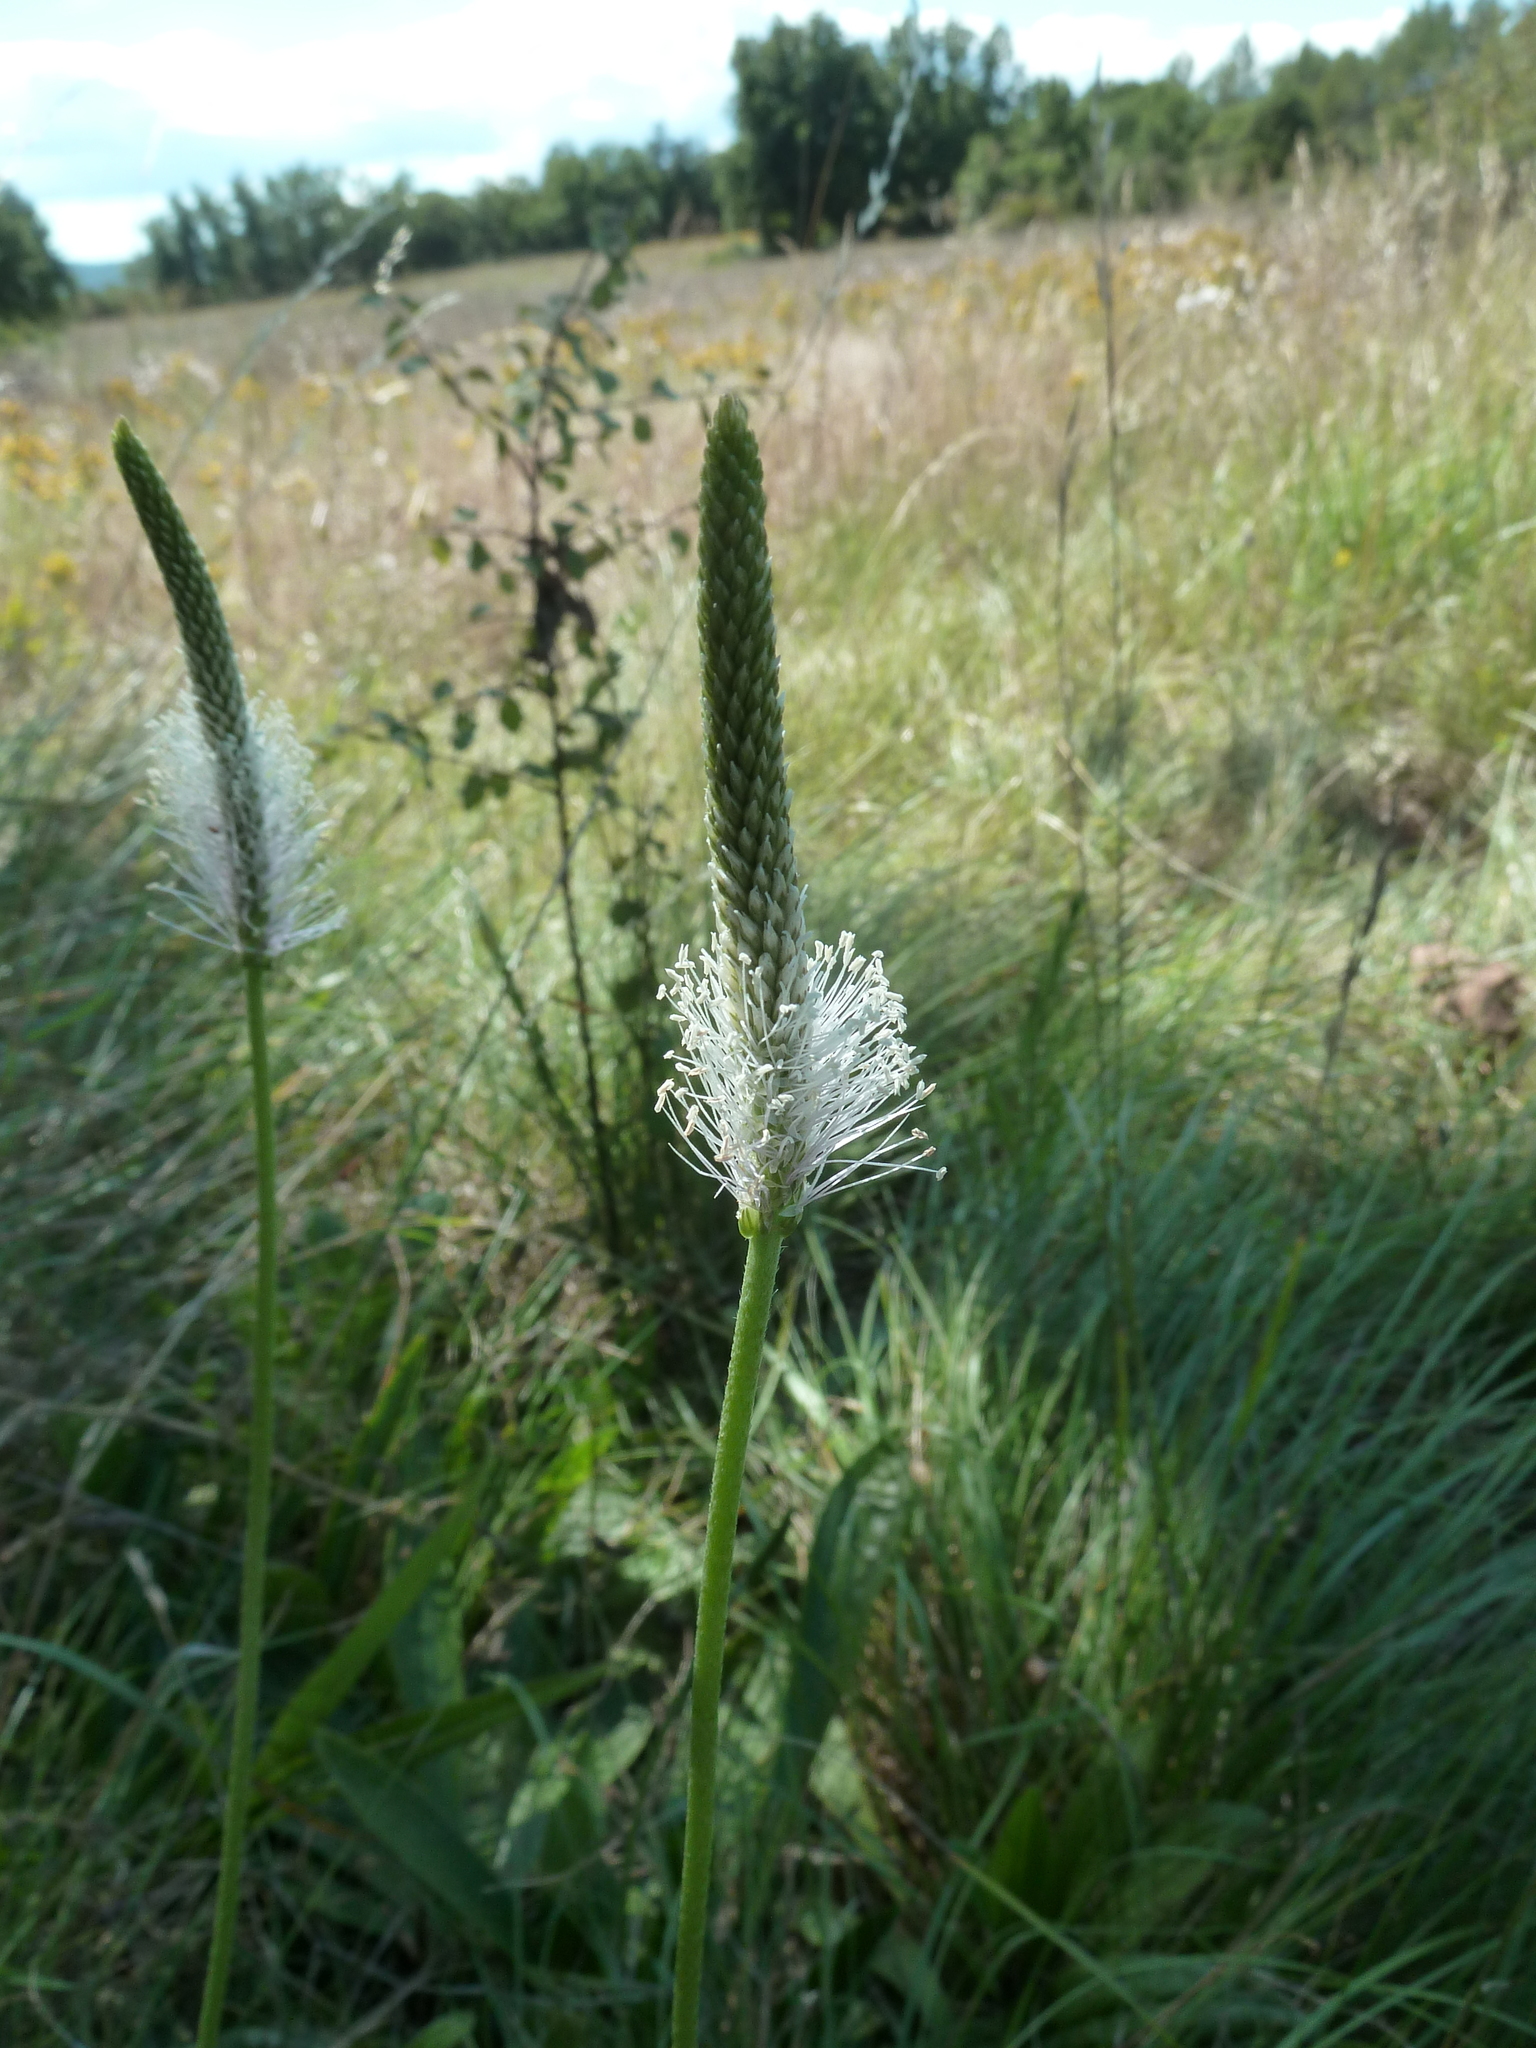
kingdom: Plantae
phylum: Tracheophyta
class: Magnoliopsida
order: Lamiales
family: Plantaginaceae
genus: Plantago
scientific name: Plantago media
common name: Hoary plantain
